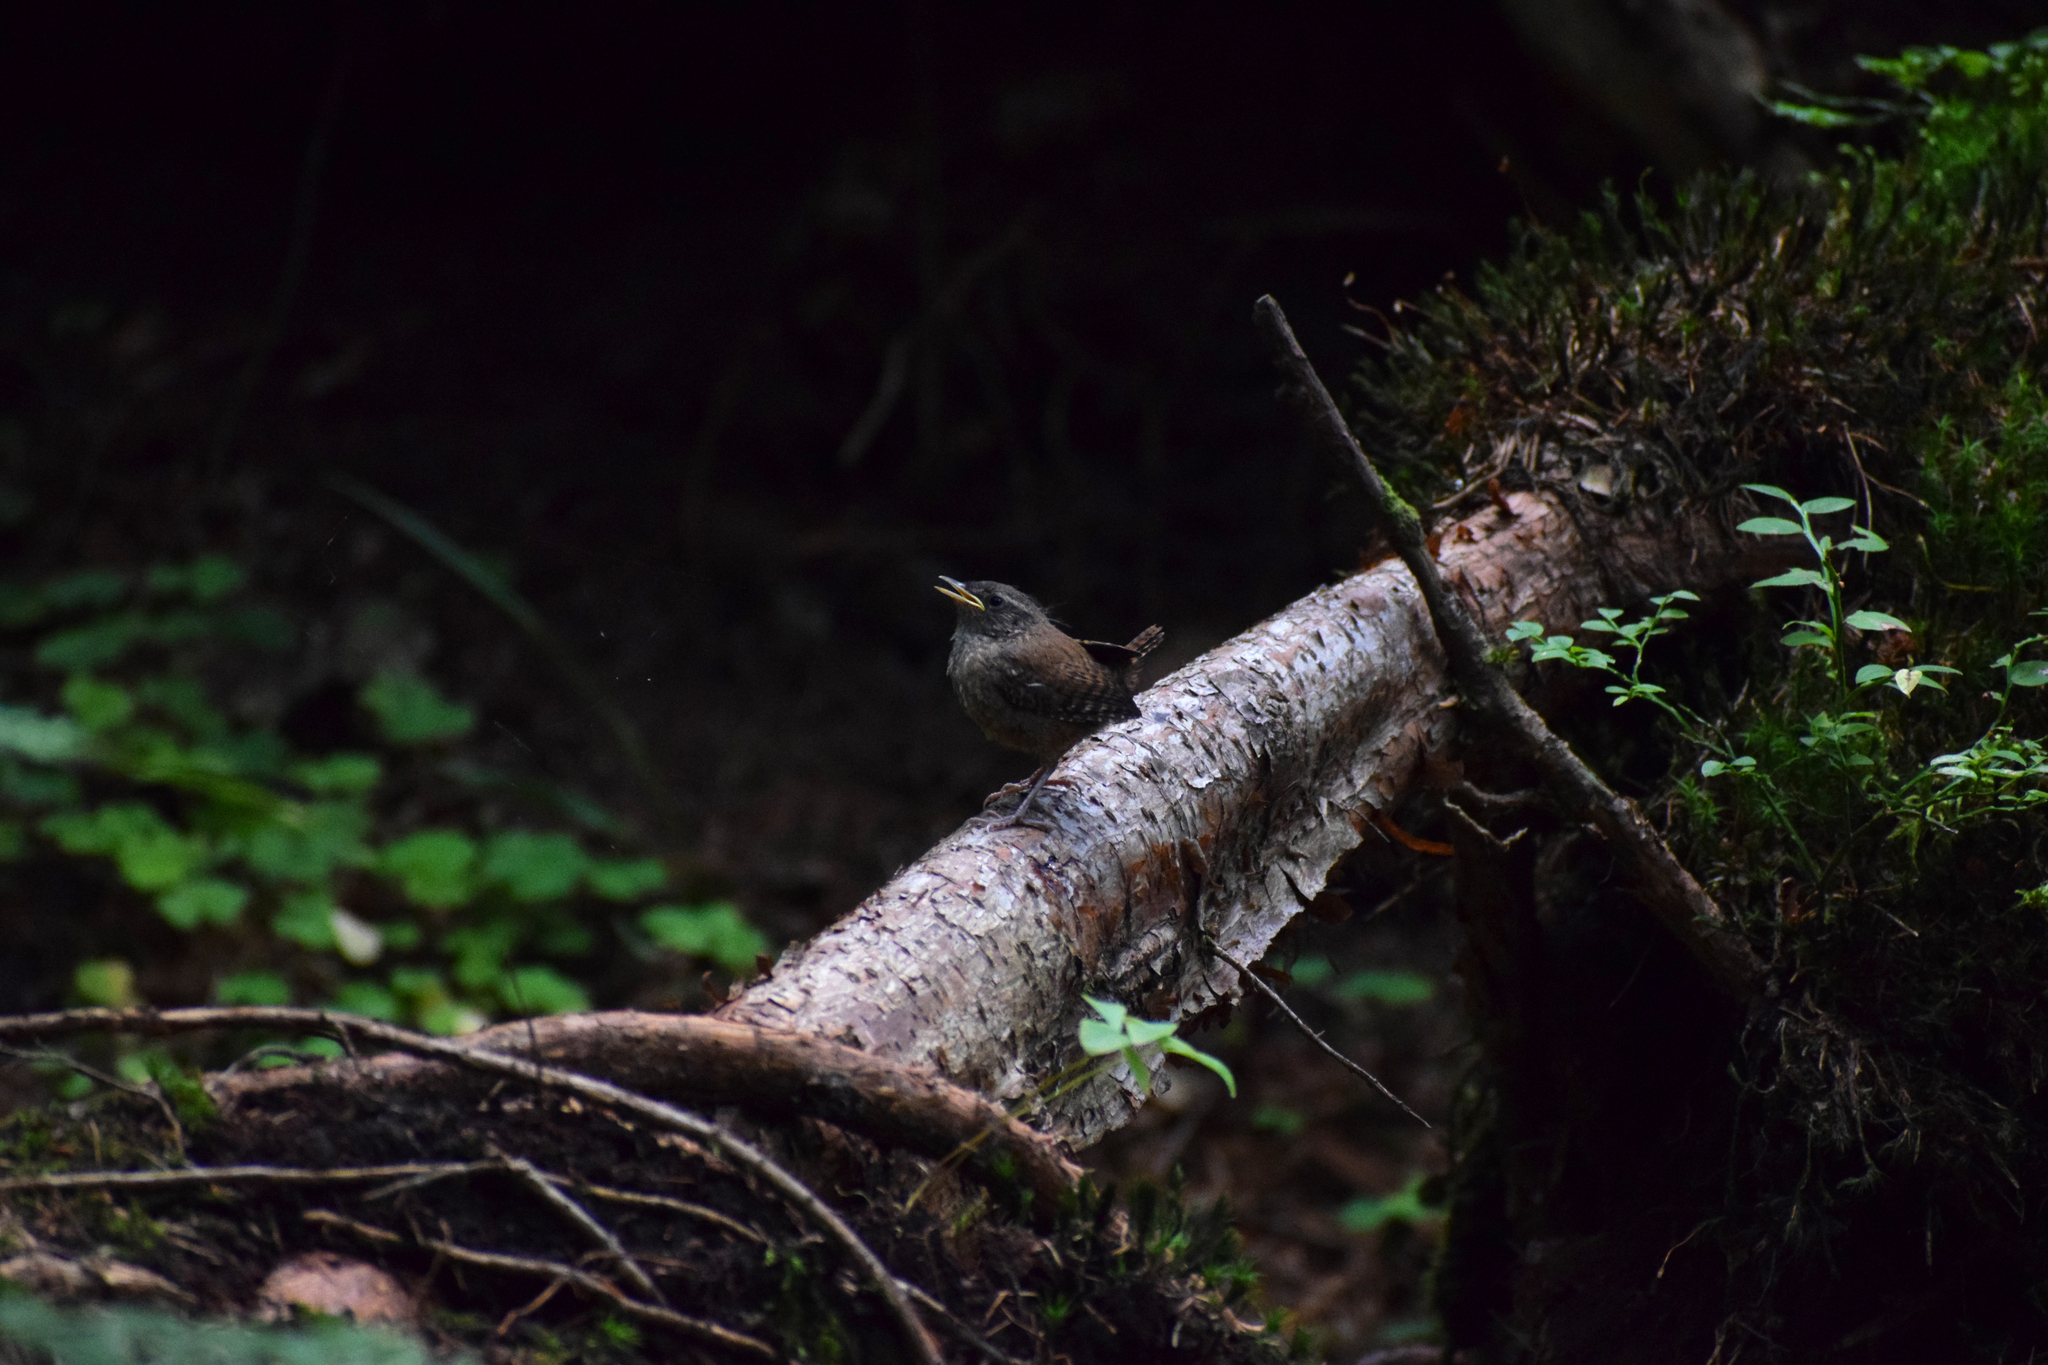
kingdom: Animalia
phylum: Chordata
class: Aves
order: Passeriformes
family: Troglodytidae
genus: Troglodytes
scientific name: Troglodytes troglodytes
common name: Eurasian wren
